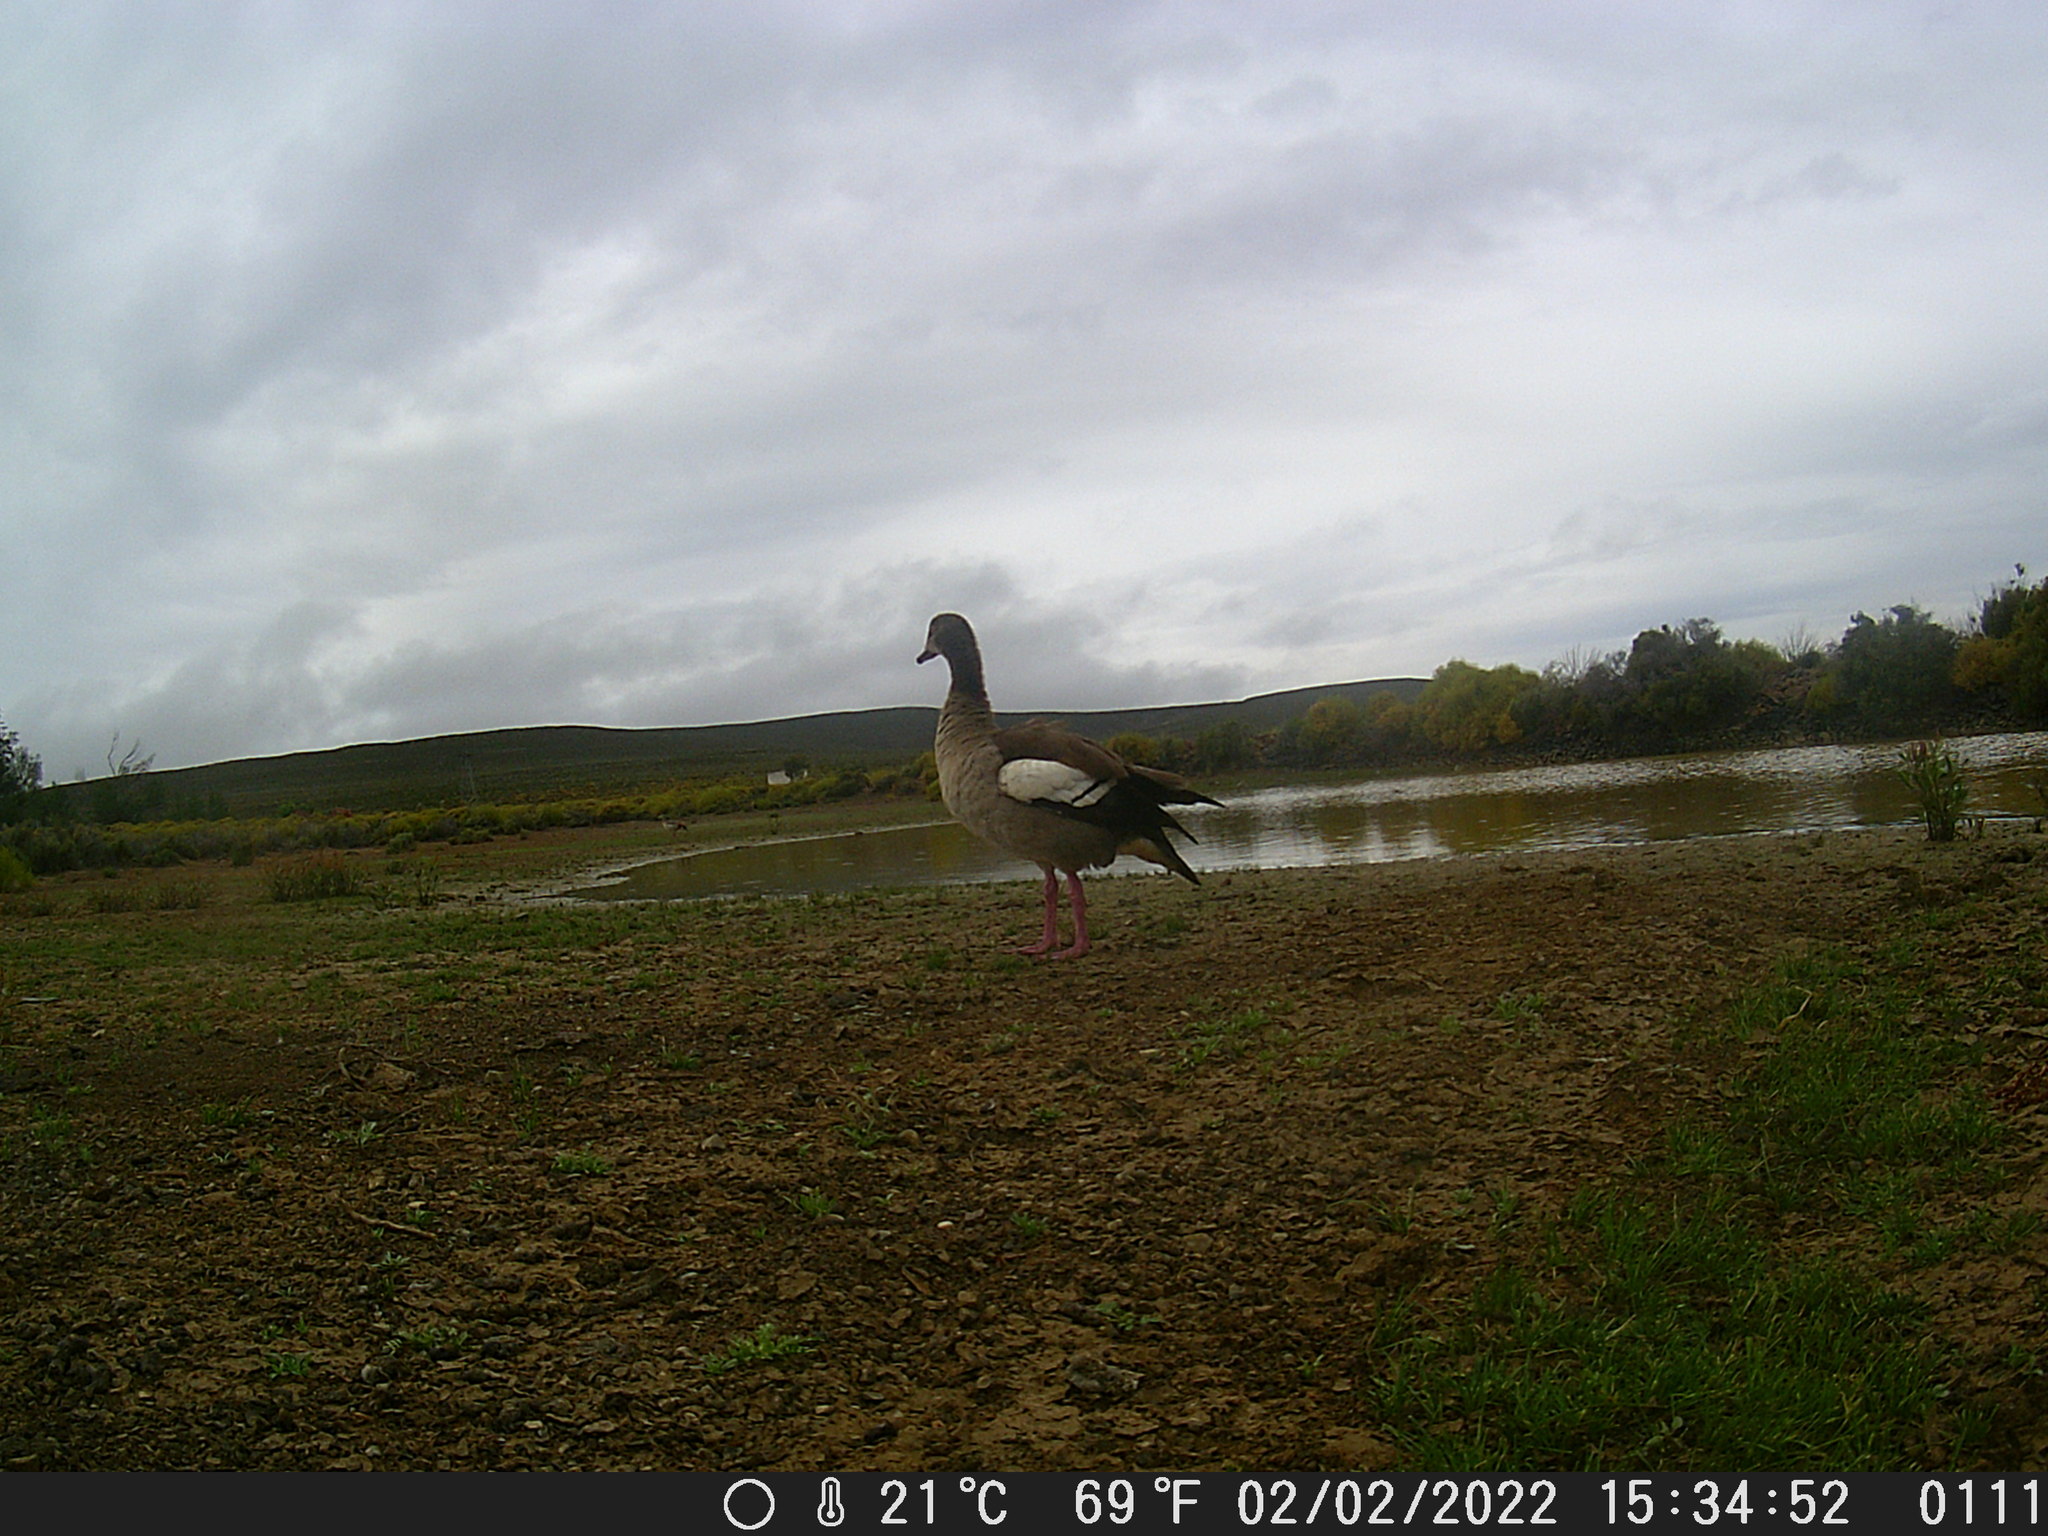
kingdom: Animalia
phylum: Chordata
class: Aves
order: Anseriformes
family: Anatidae
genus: Alopochen
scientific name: Alopochen aegyptiaca
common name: Egyptian goose
